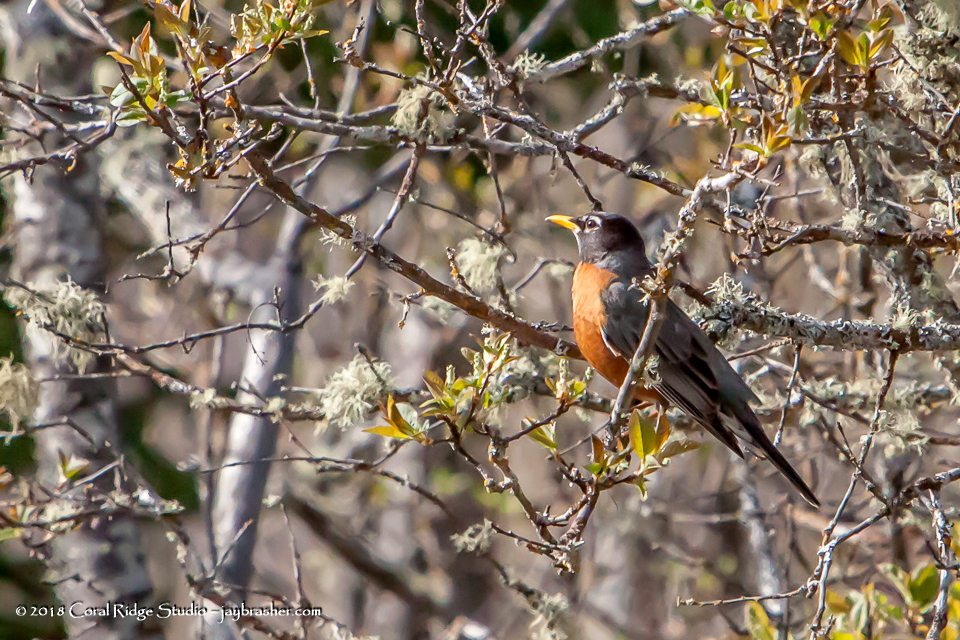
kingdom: Animalia
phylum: Chordata
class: Aves
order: Passeriformes
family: Turdidae
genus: Turdus
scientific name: Turdus migratorius
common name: American robin
